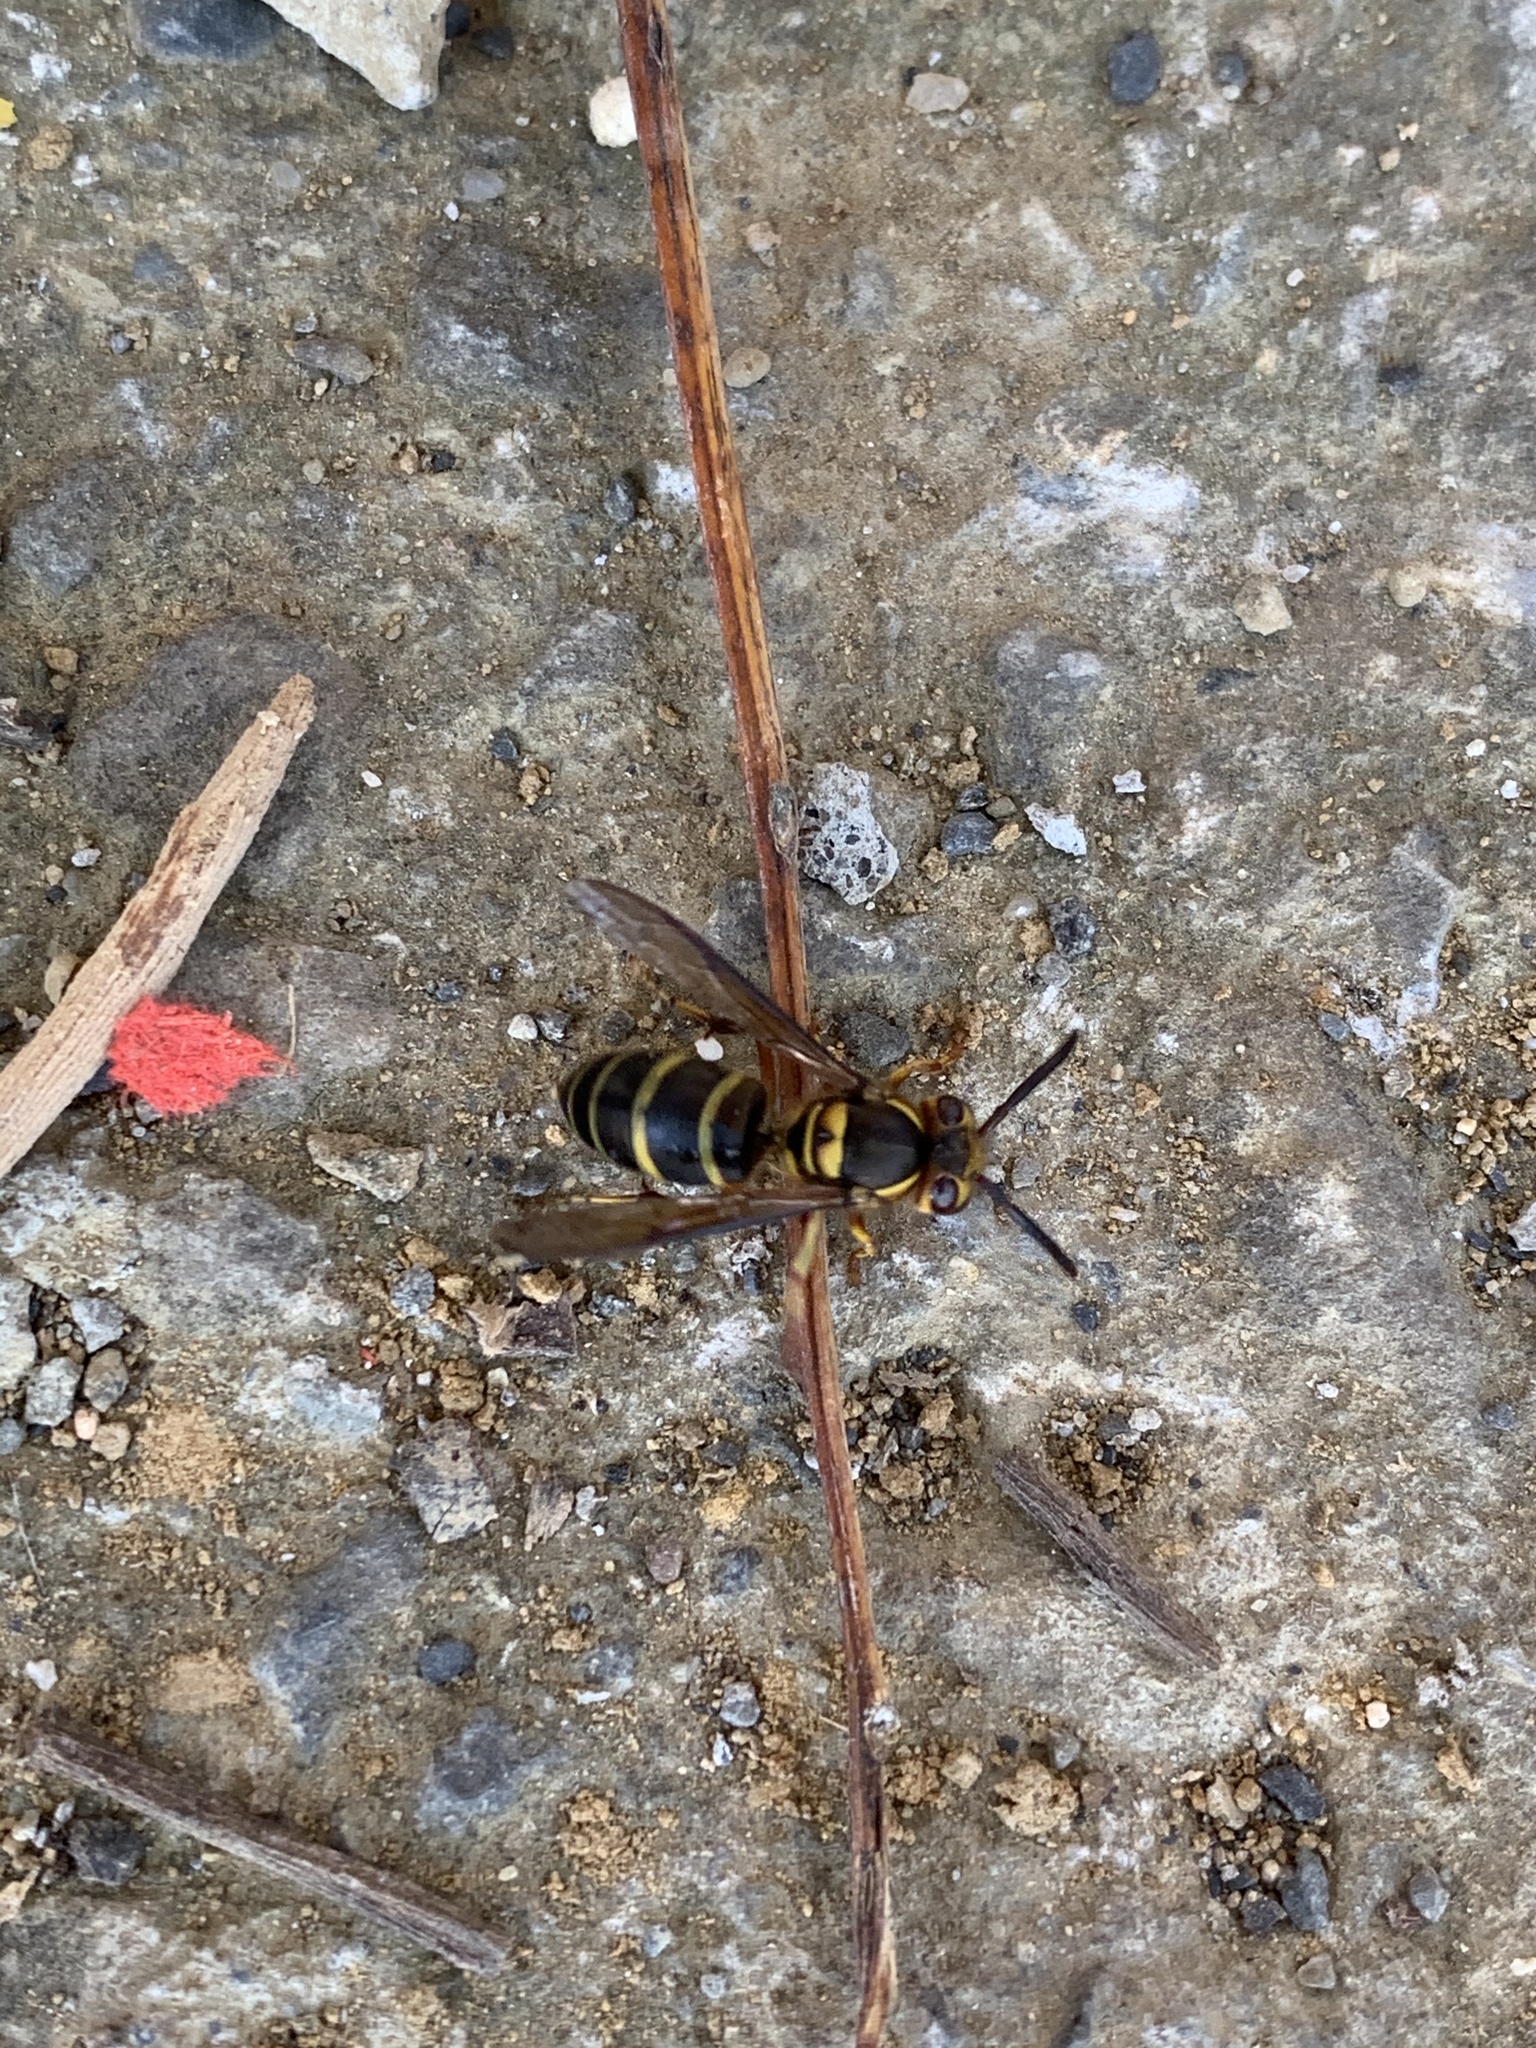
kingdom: Animalia
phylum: Arthropoda
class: Insecta
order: Hymenoptera
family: Vespidae
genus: Vespula
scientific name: Vespula arisana
